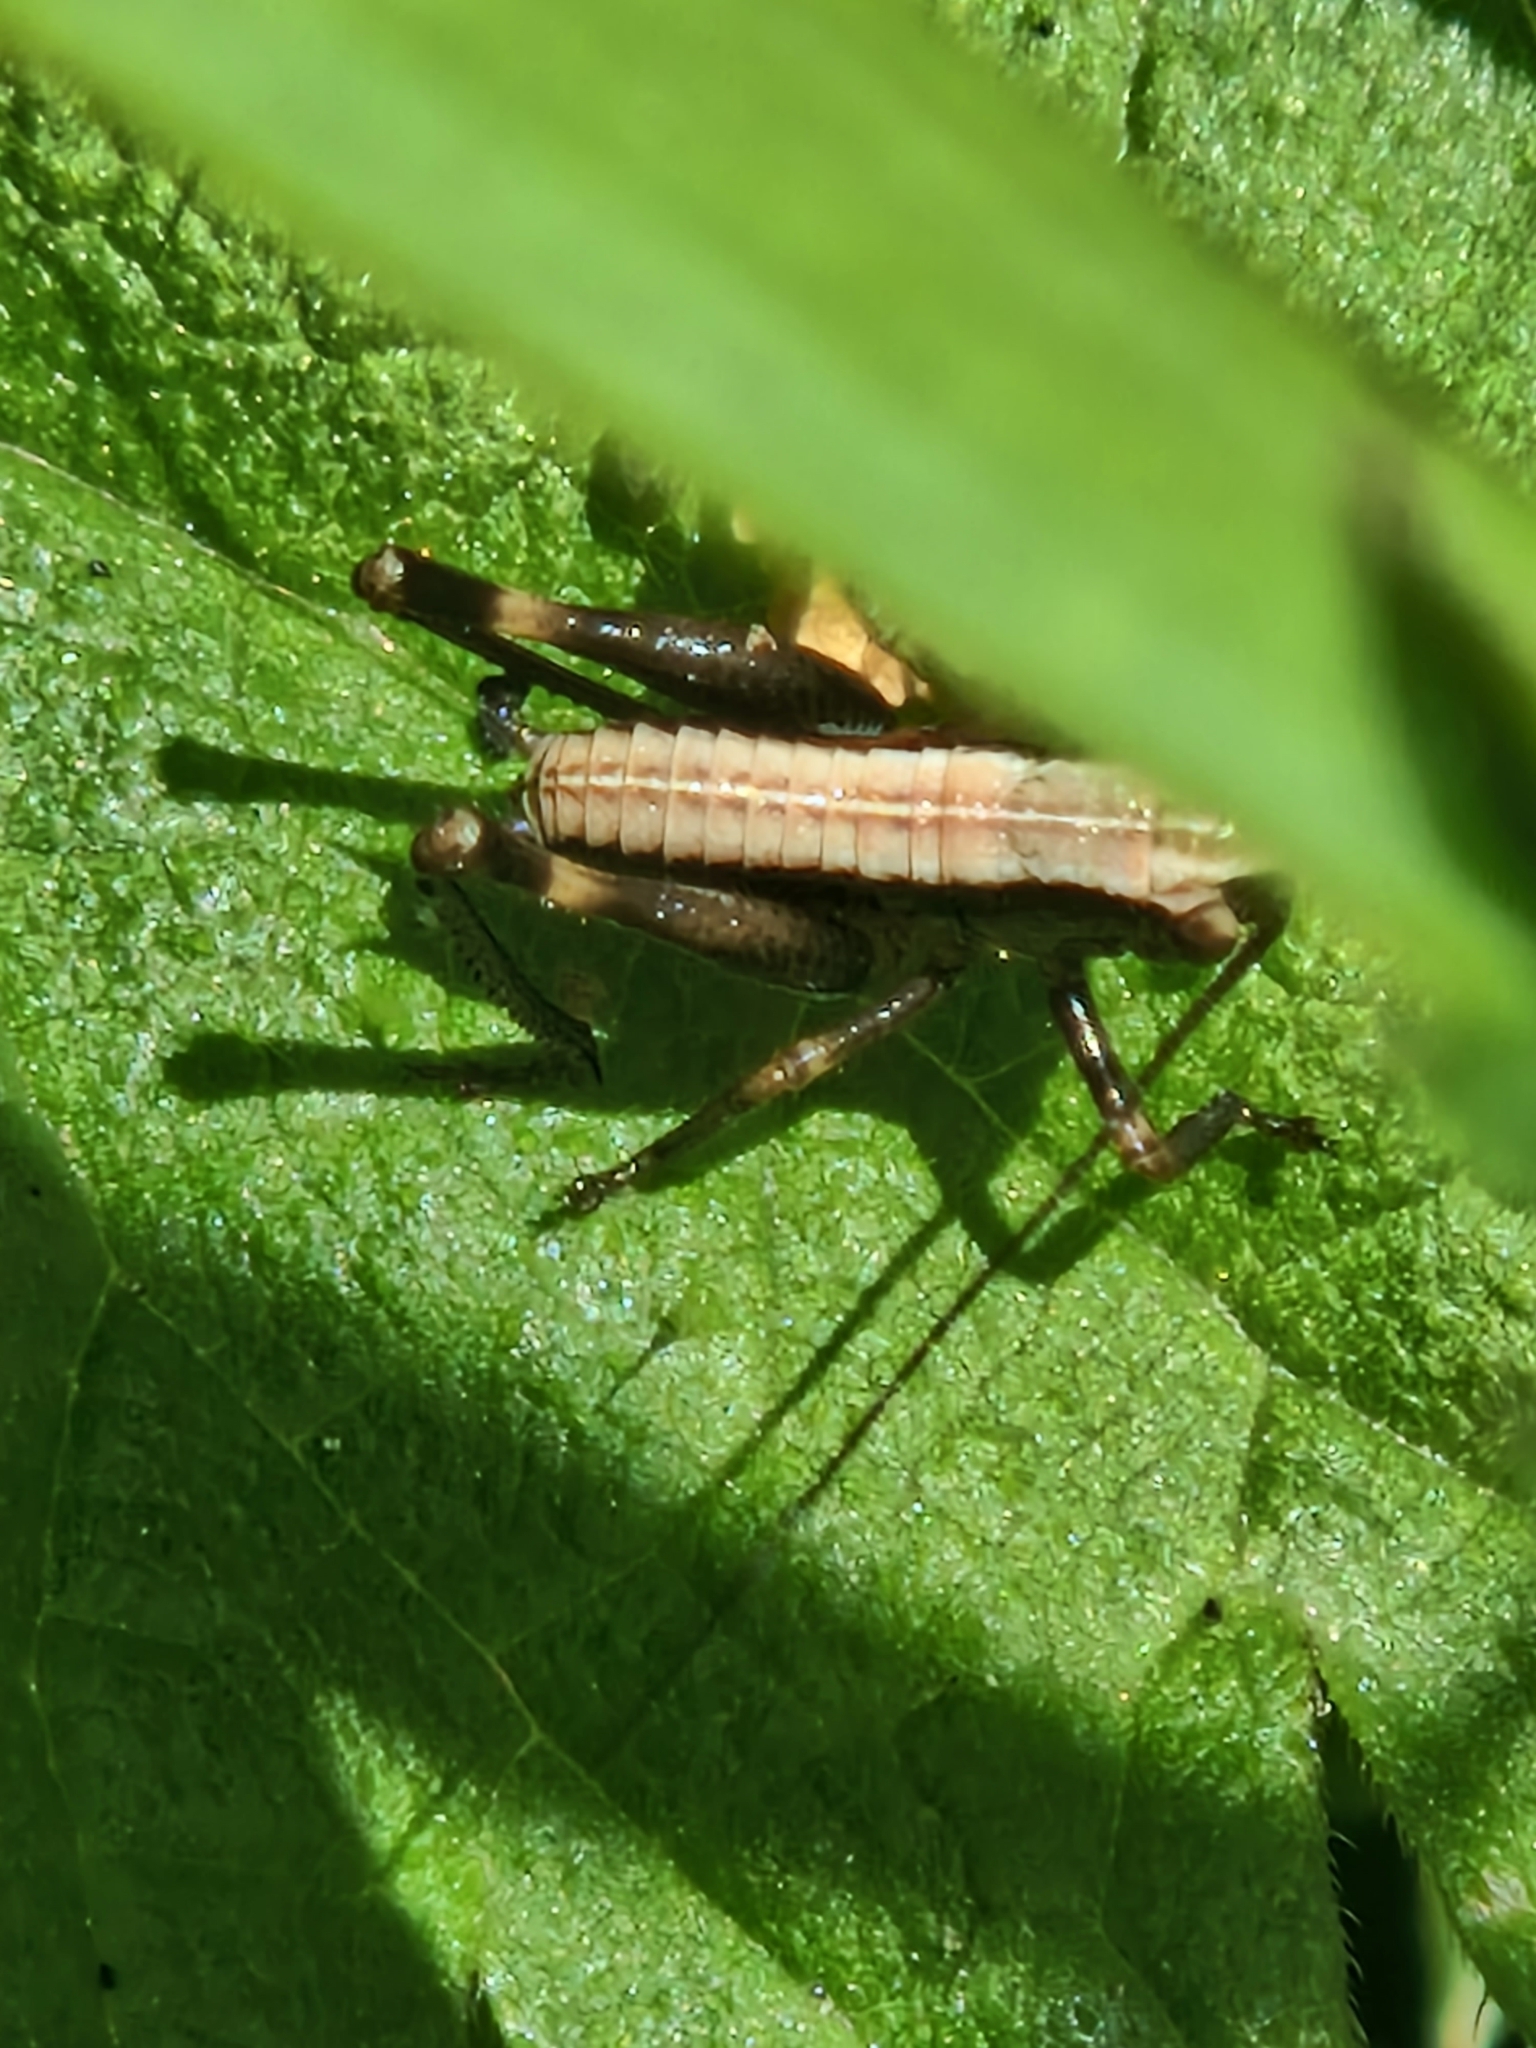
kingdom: Animalia
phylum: Arthropoda
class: Insecta
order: Orthoptera
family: Tettigoniidae
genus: Pholidoptera
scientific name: Pholidoptera griseoaptera
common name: Dark bush-cricket
